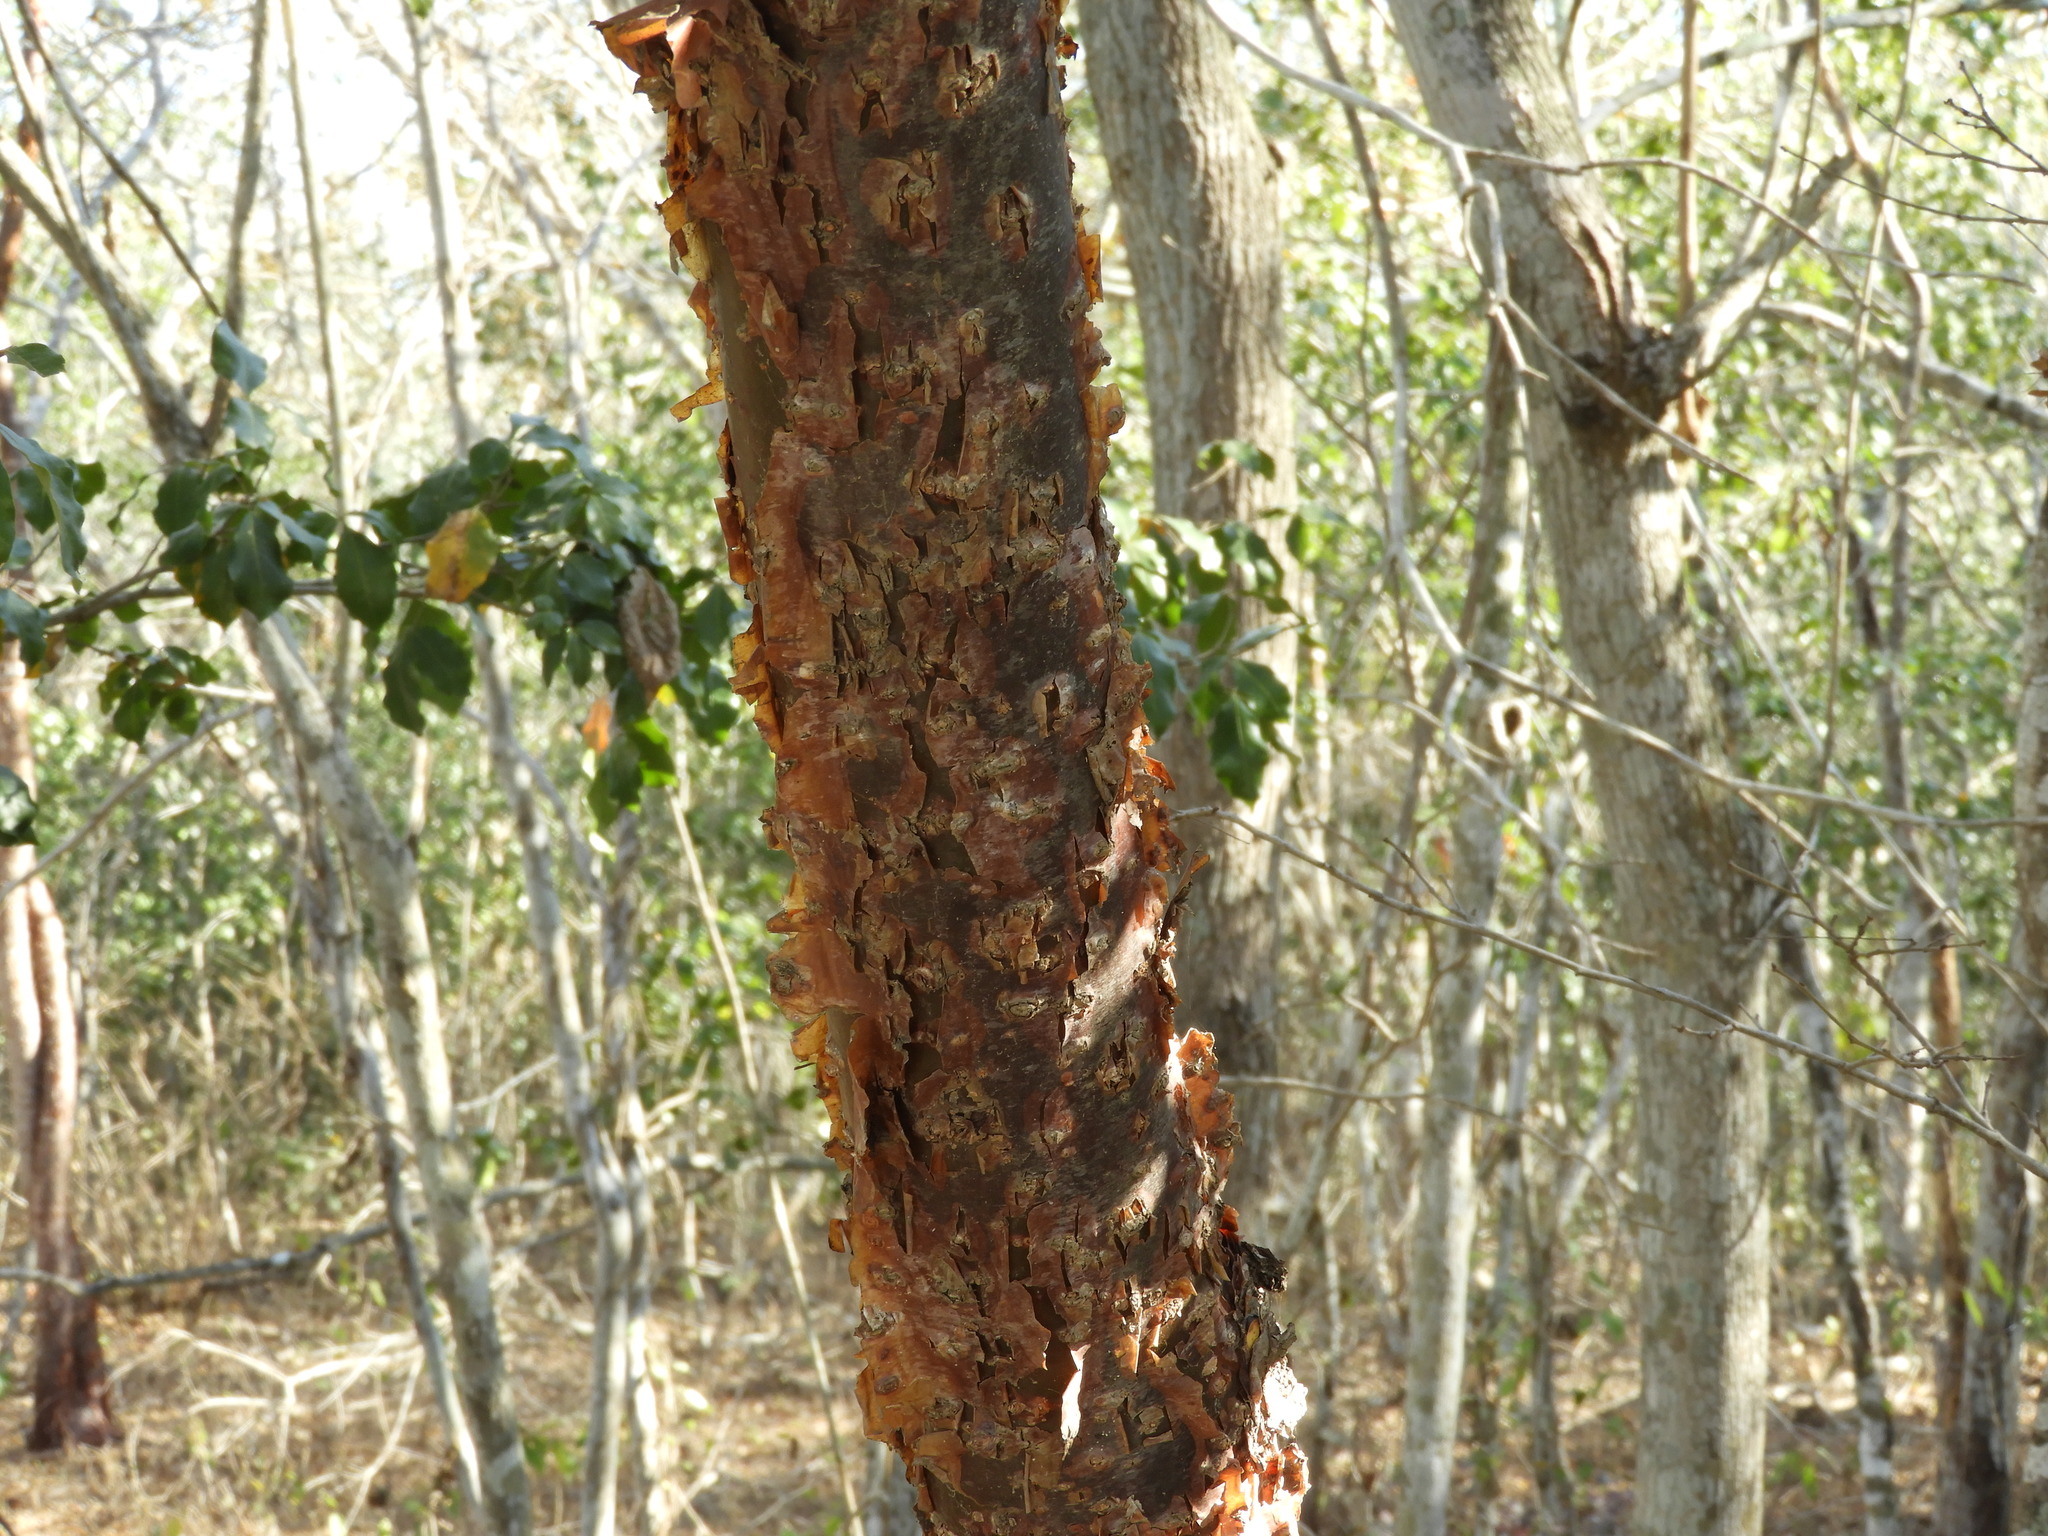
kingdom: Plantae
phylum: Tracheophyta
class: Magnoliopsida
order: Sapindales
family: Burseraceae
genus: Bursera
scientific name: Bursera simaruba
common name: Turpentine tree
